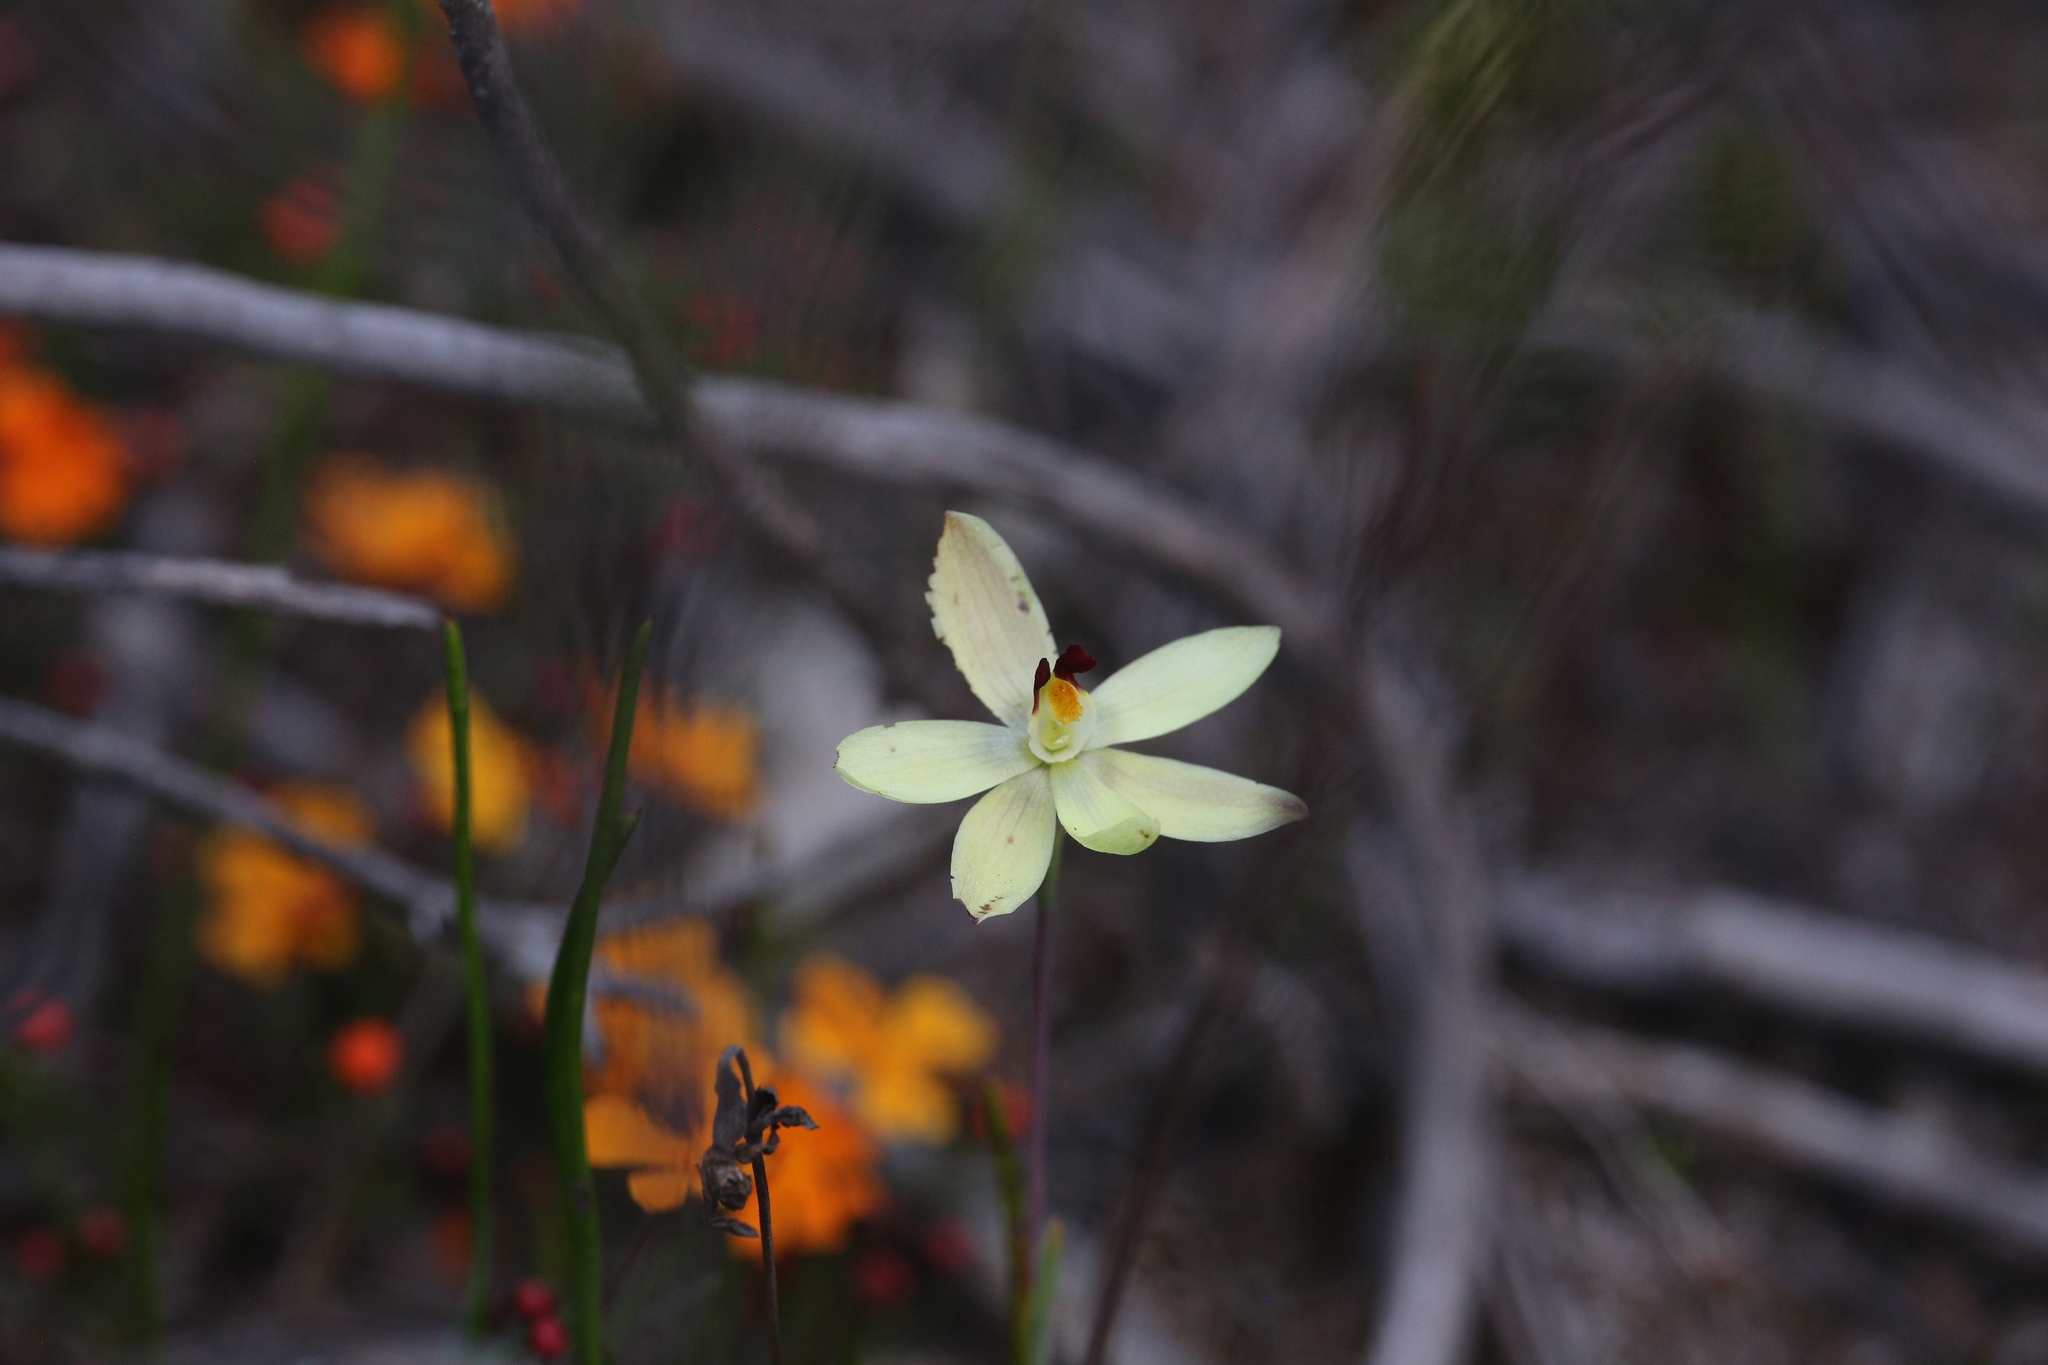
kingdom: Plantae
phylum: Tracheophyta
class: Liliopsida
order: Asparagales
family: Orchidaceae
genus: Thelymitra
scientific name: Thelymitra antennifera
